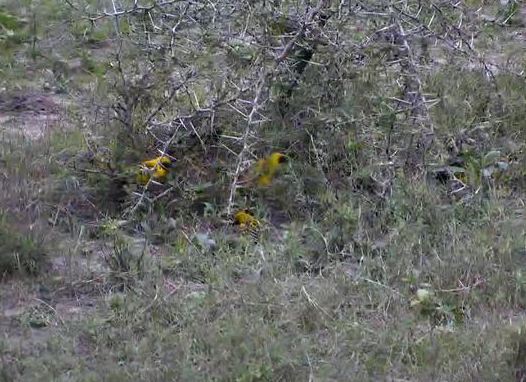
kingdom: Animalia
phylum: Chordata
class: Aves
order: Passeriformes
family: Ploceidae
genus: Ploceus
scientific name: Ploceus cucullatus
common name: Village weaver
